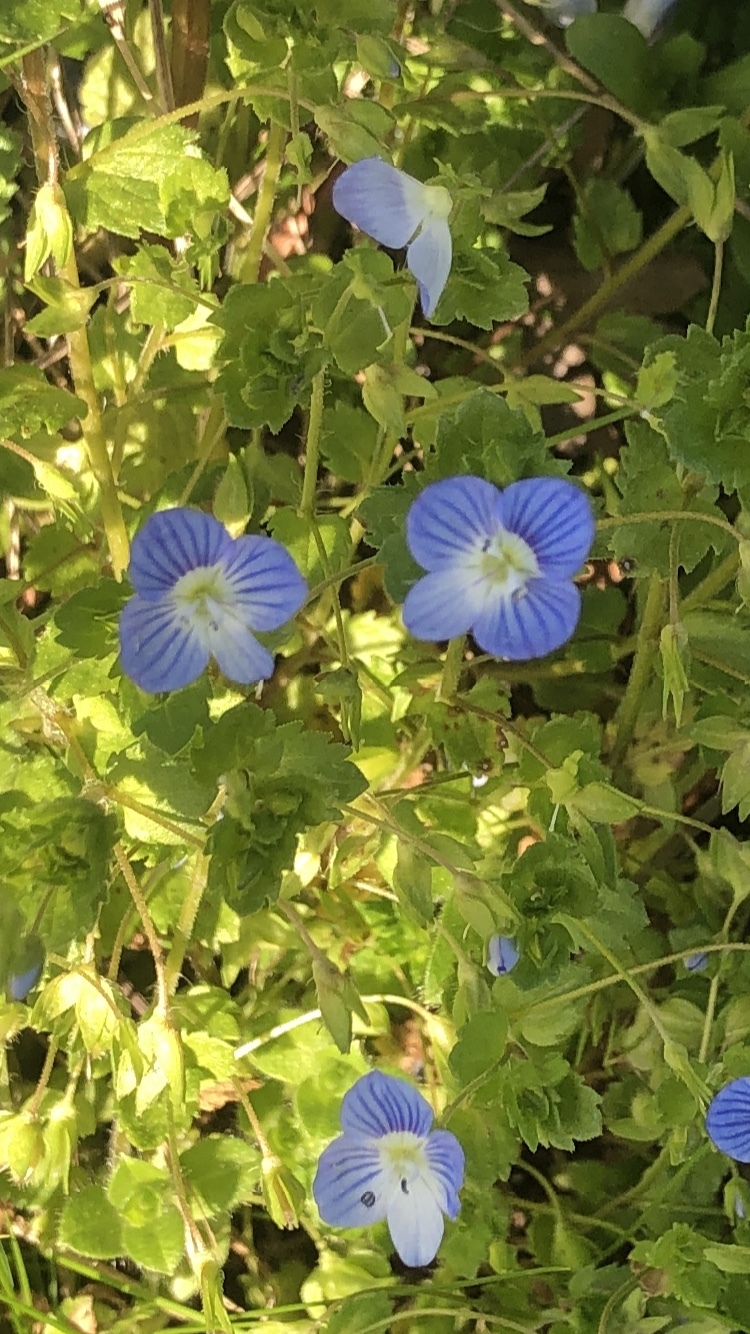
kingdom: Plantae
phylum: Tracheophyta
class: Magnoliopsida
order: Lamiales
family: Plantaginaceae
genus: Veronica
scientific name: Veronica persica
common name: Common field-speedwell
